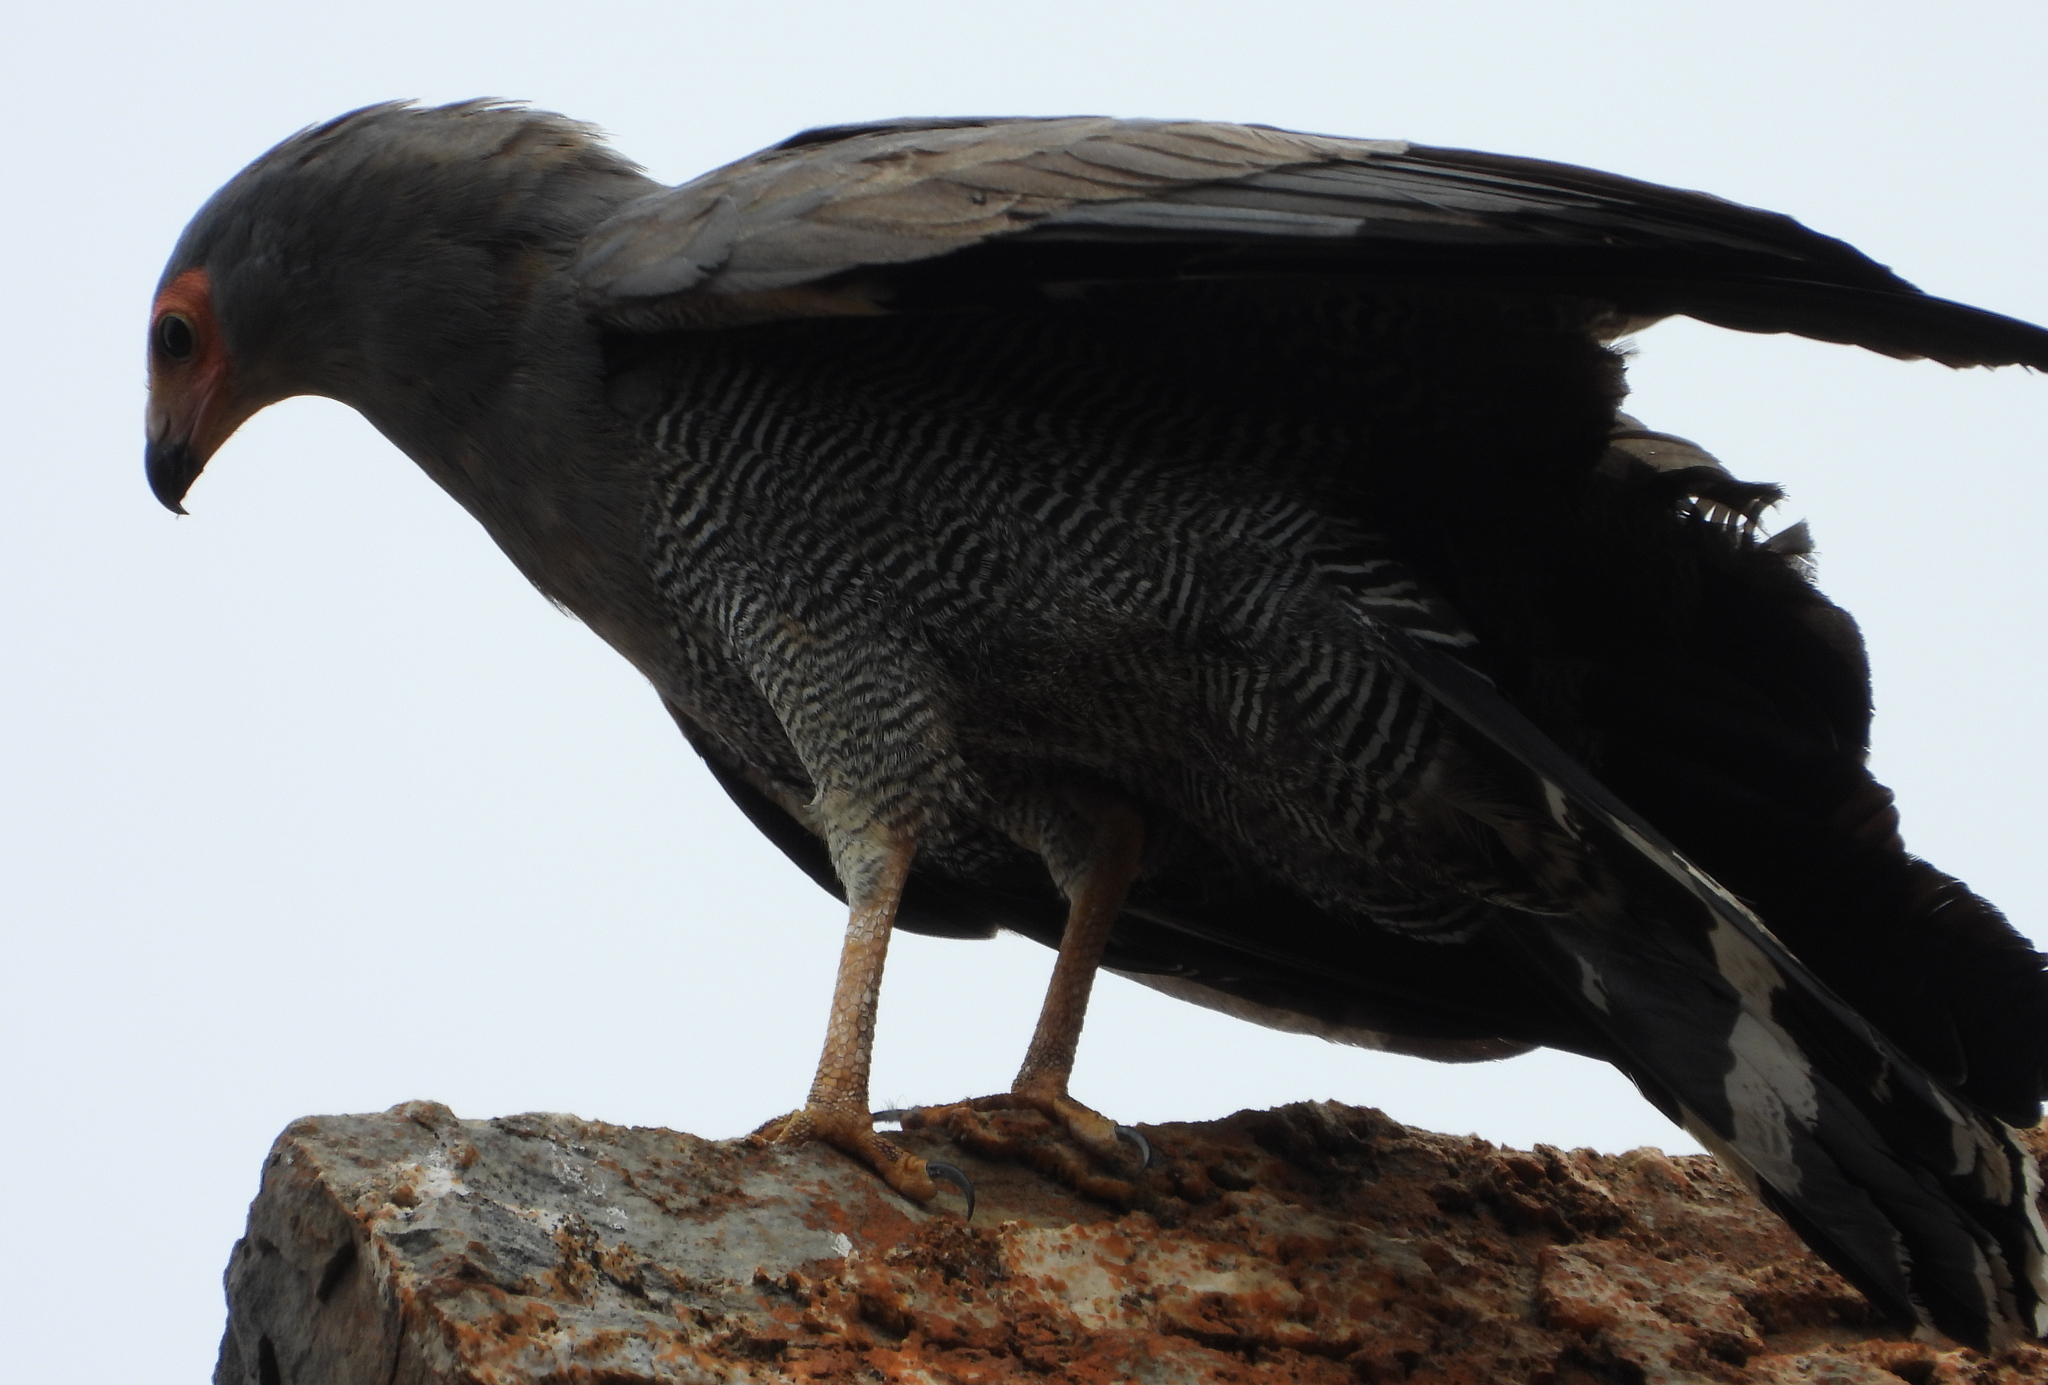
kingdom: Animalia
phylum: Chordata
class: Aves
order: Accipitriformes
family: Accipitridae
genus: Polyboroides
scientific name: Polyboroides typus
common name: African harrier-hawk
